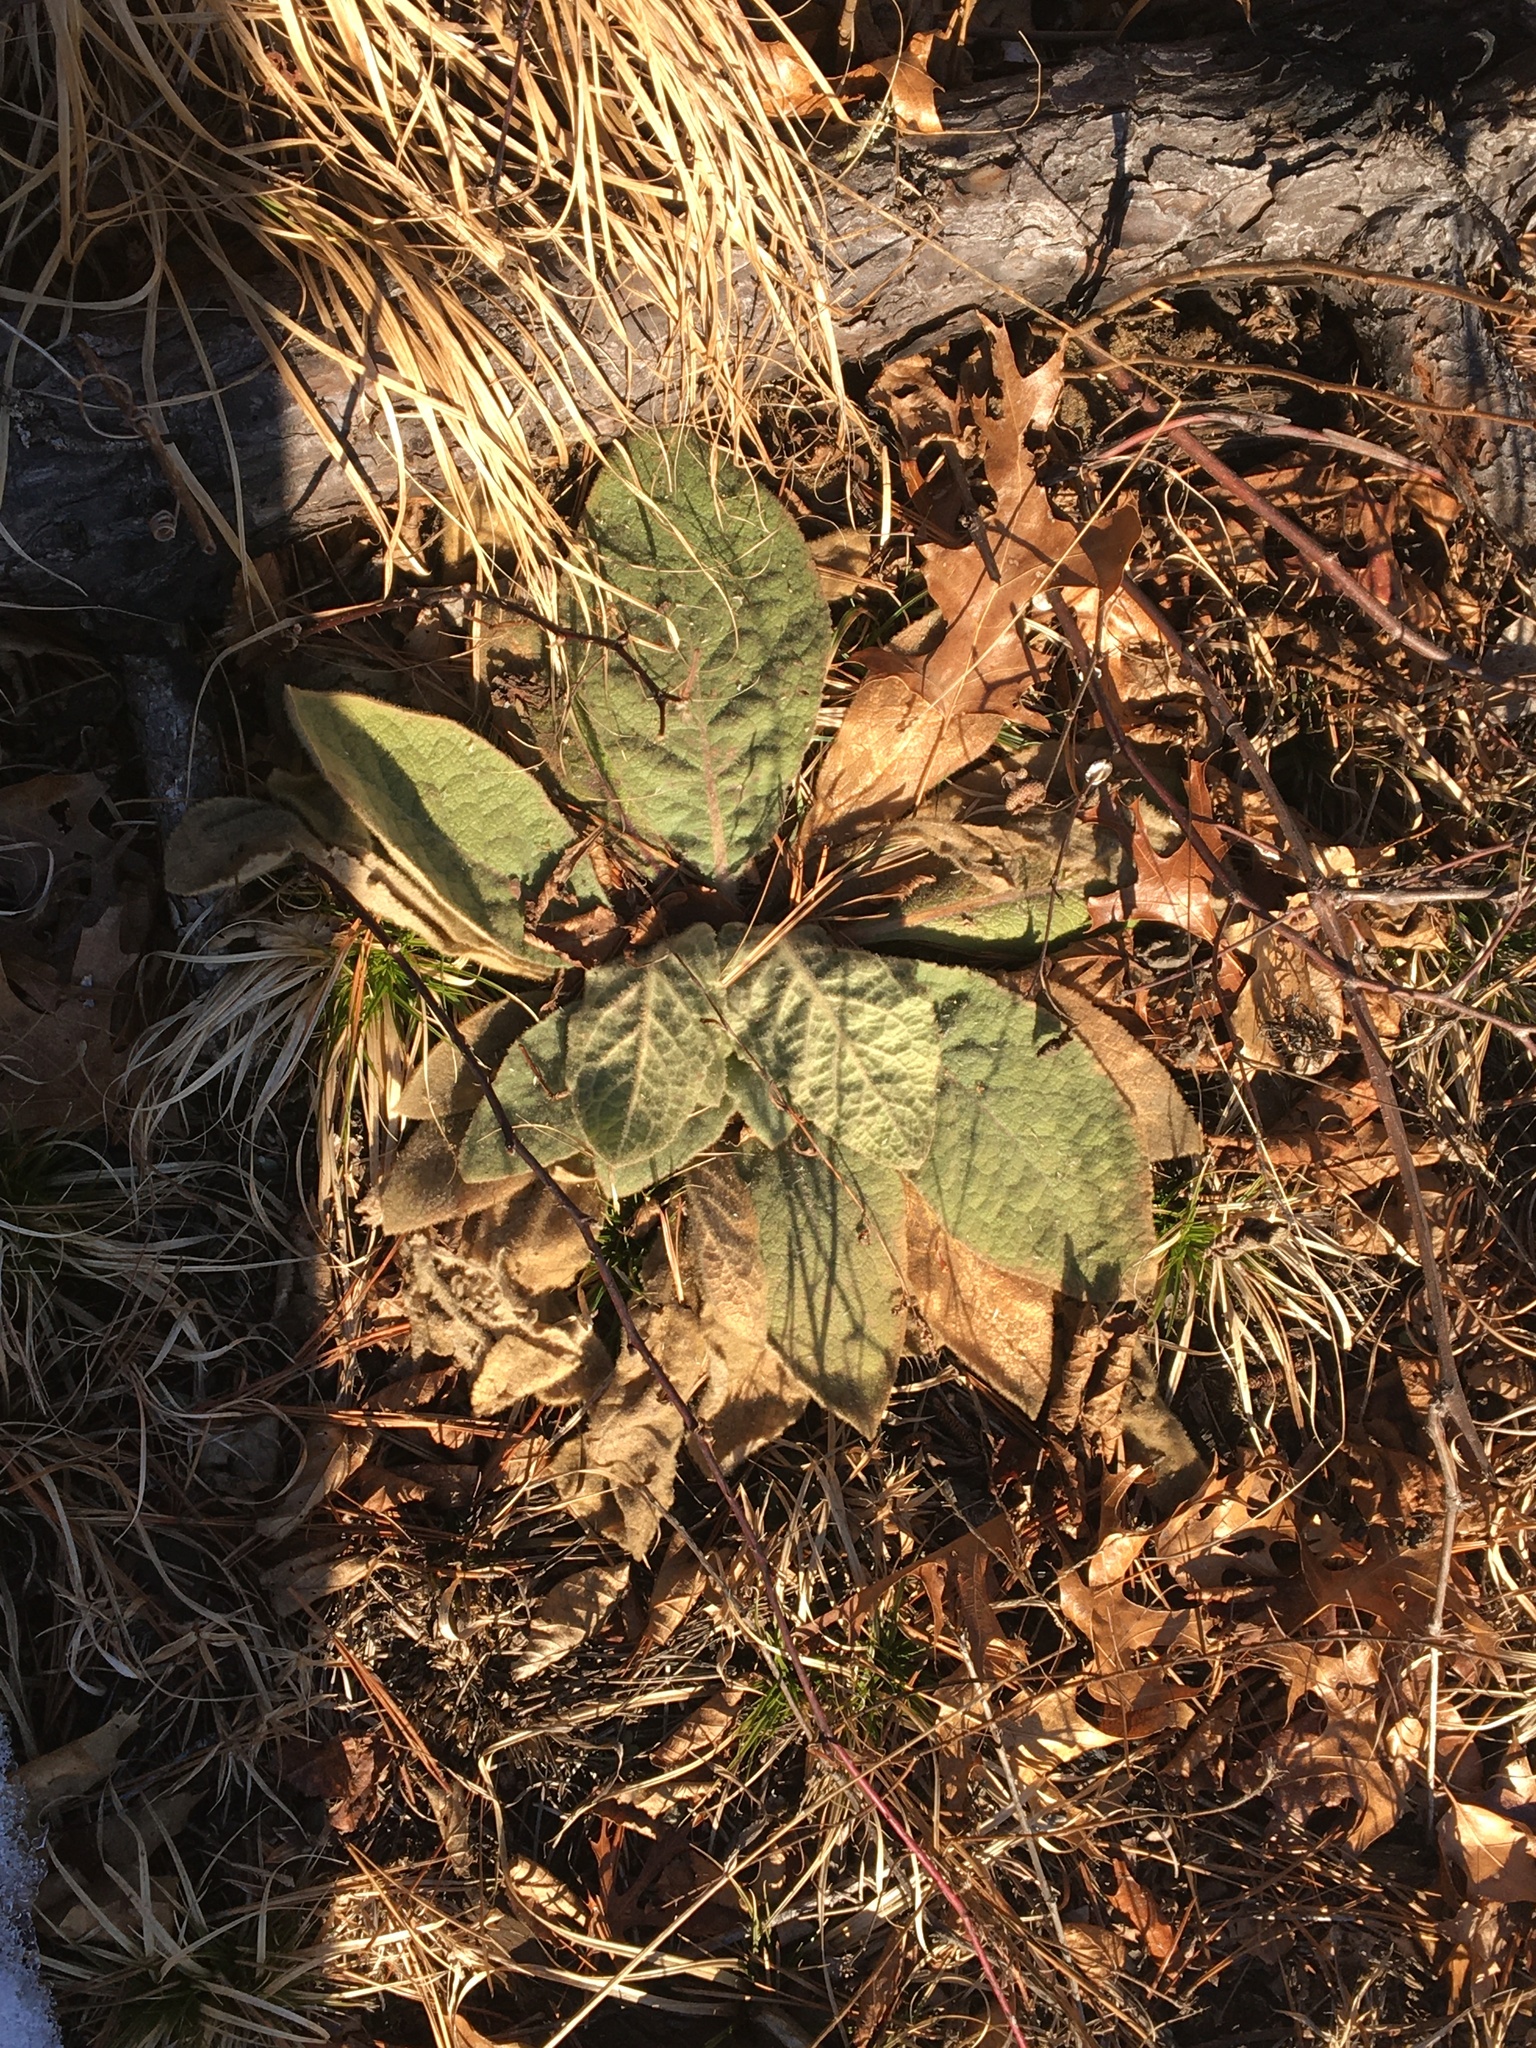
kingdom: Plantae
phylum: Tracheophyta
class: Magnoliopsida
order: Lamiales
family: Scrophulariaceae
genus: Verbascum
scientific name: Verbascum thapsus
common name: Common mullein
